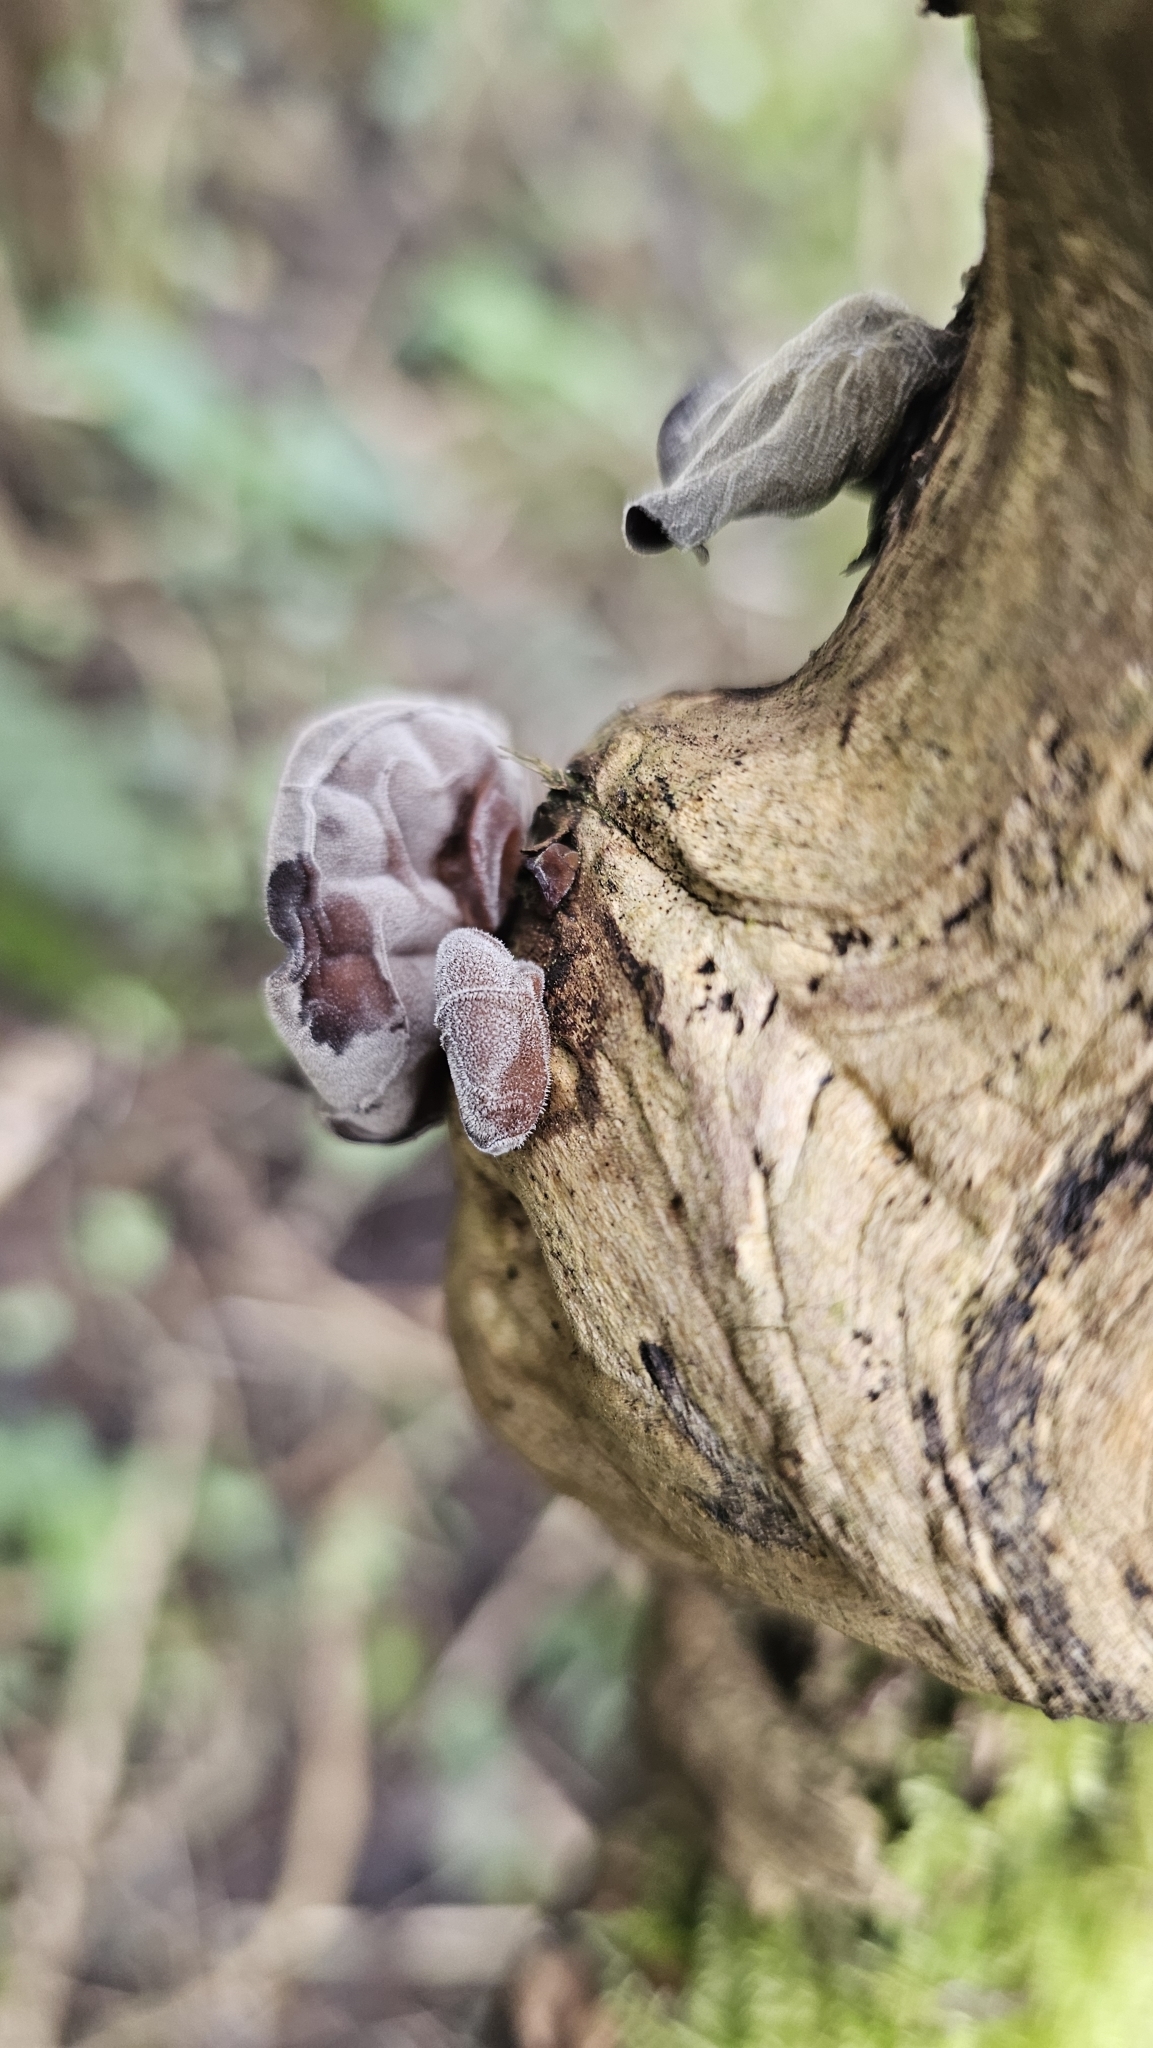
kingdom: Fungi
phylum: Basidiomycota
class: Agaricomycetes
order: Auriculariales
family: Auriculariaceae
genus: Auricularia
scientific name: Auricularia auricula-judae
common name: Jelly ear
